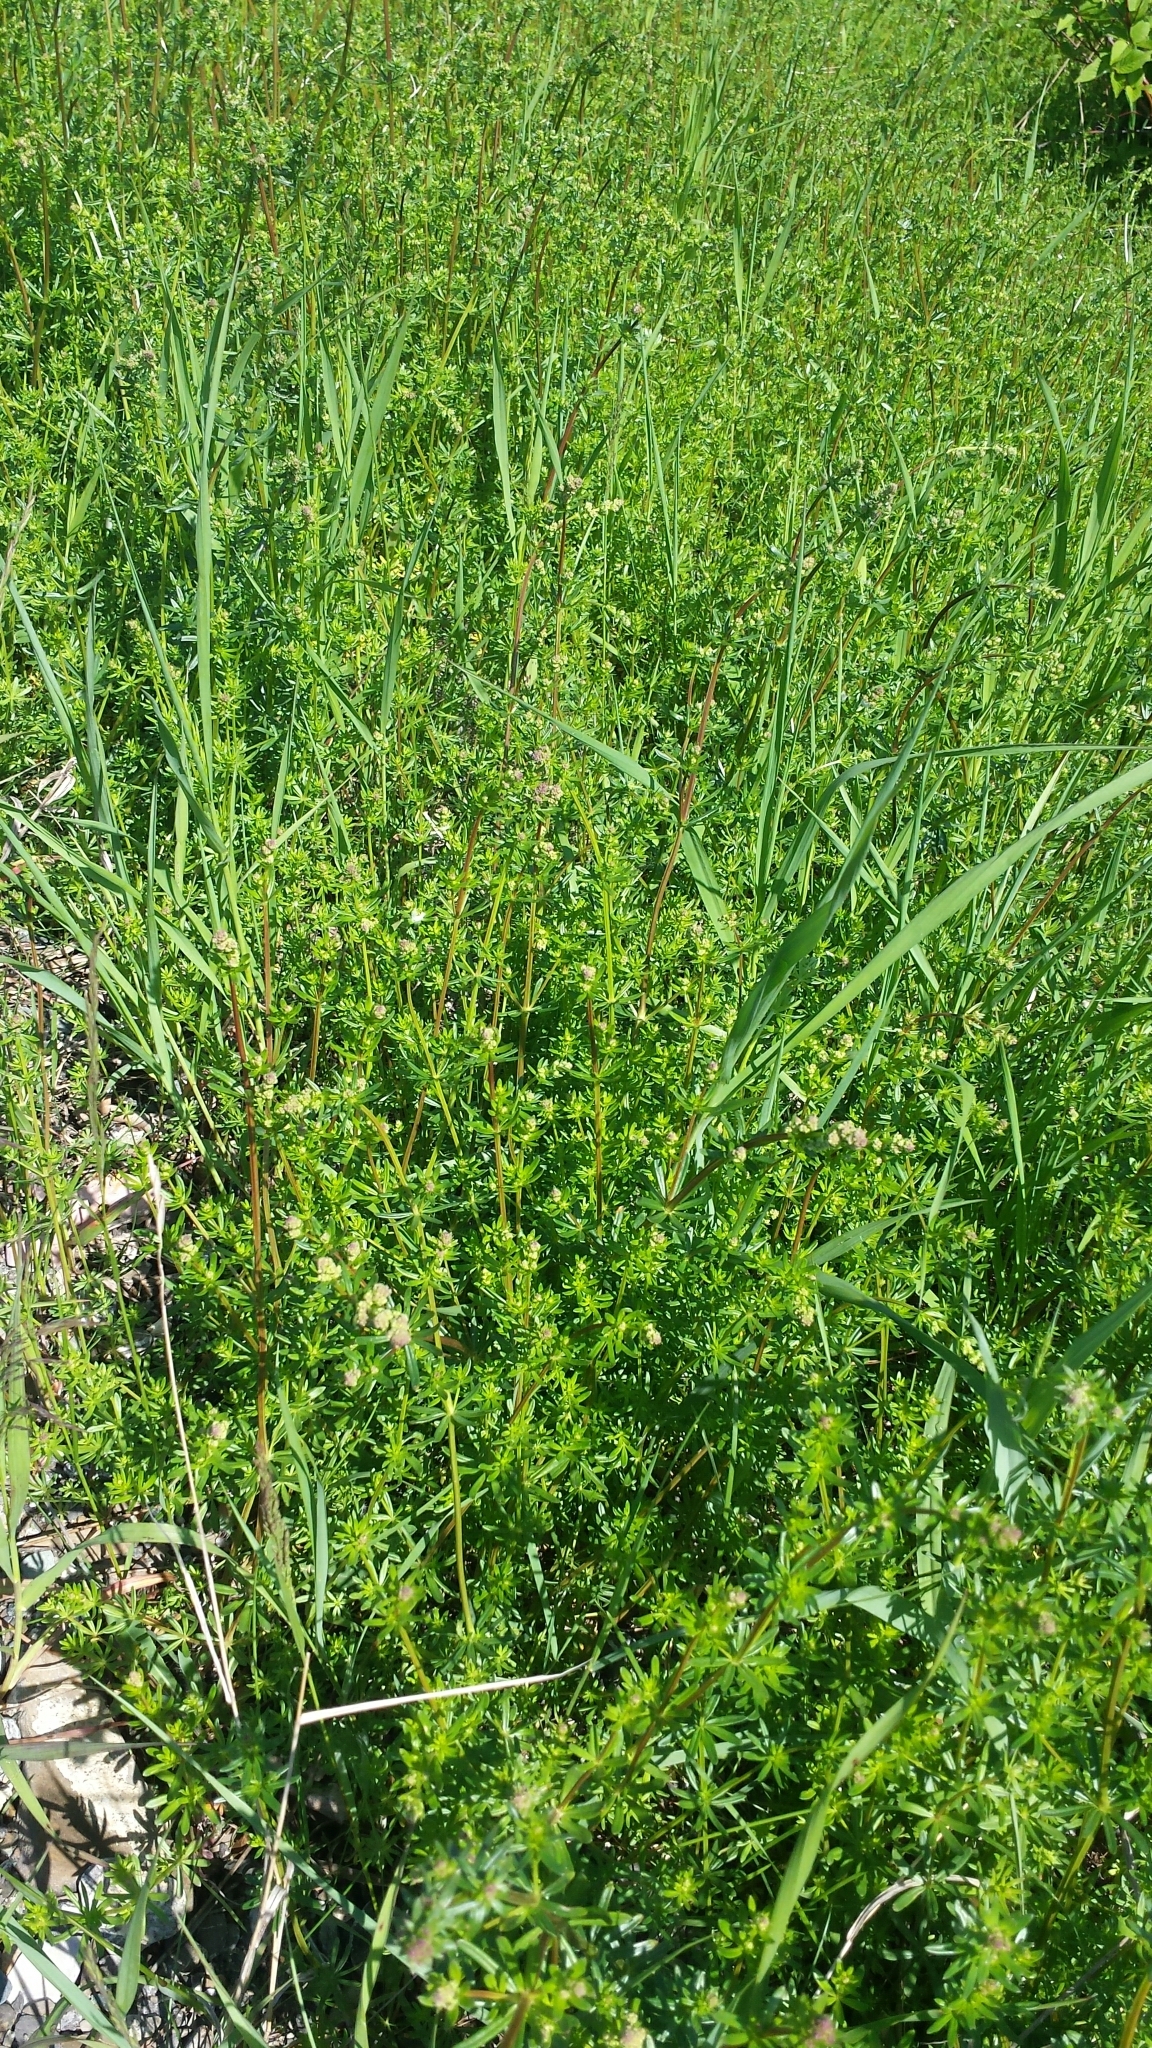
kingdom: Plantae
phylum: Tracheophyta
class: Magnoliopsida
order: Gentianales
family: Rubiaceae
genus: Galium
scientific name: Galium mollugo
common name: Hedge bedstraw
